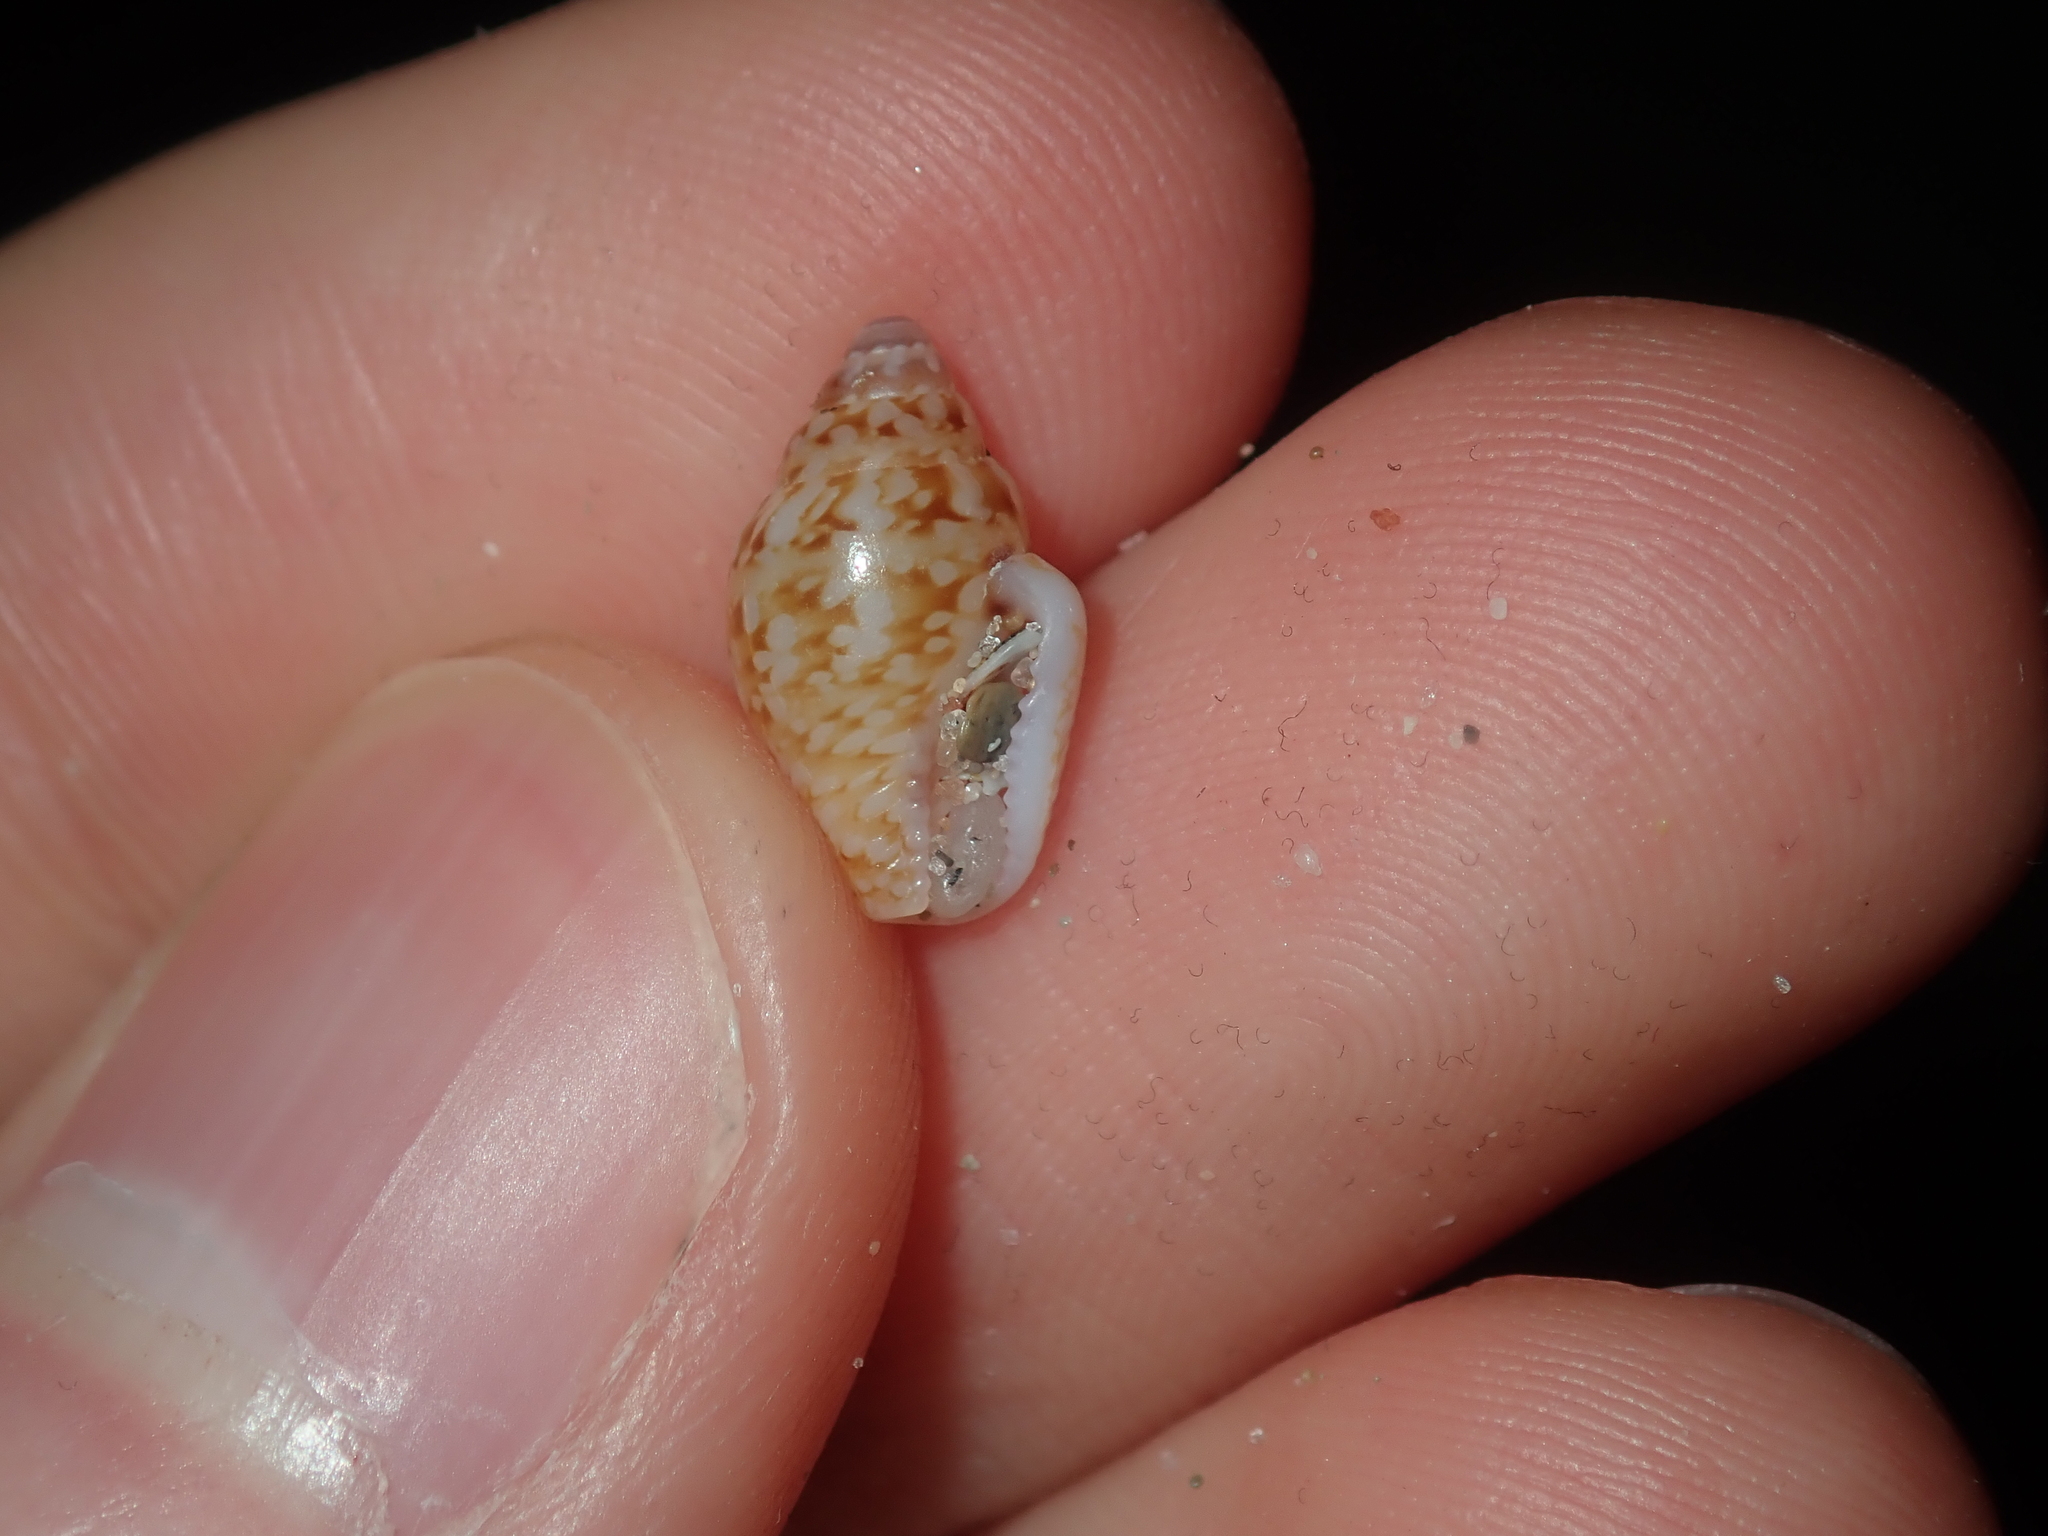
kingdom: Animalia
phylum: Mollusca
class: Gastropoda
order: Neogastropoda
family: Columbellidae
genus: Euplica
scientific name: Euplica bidentata
